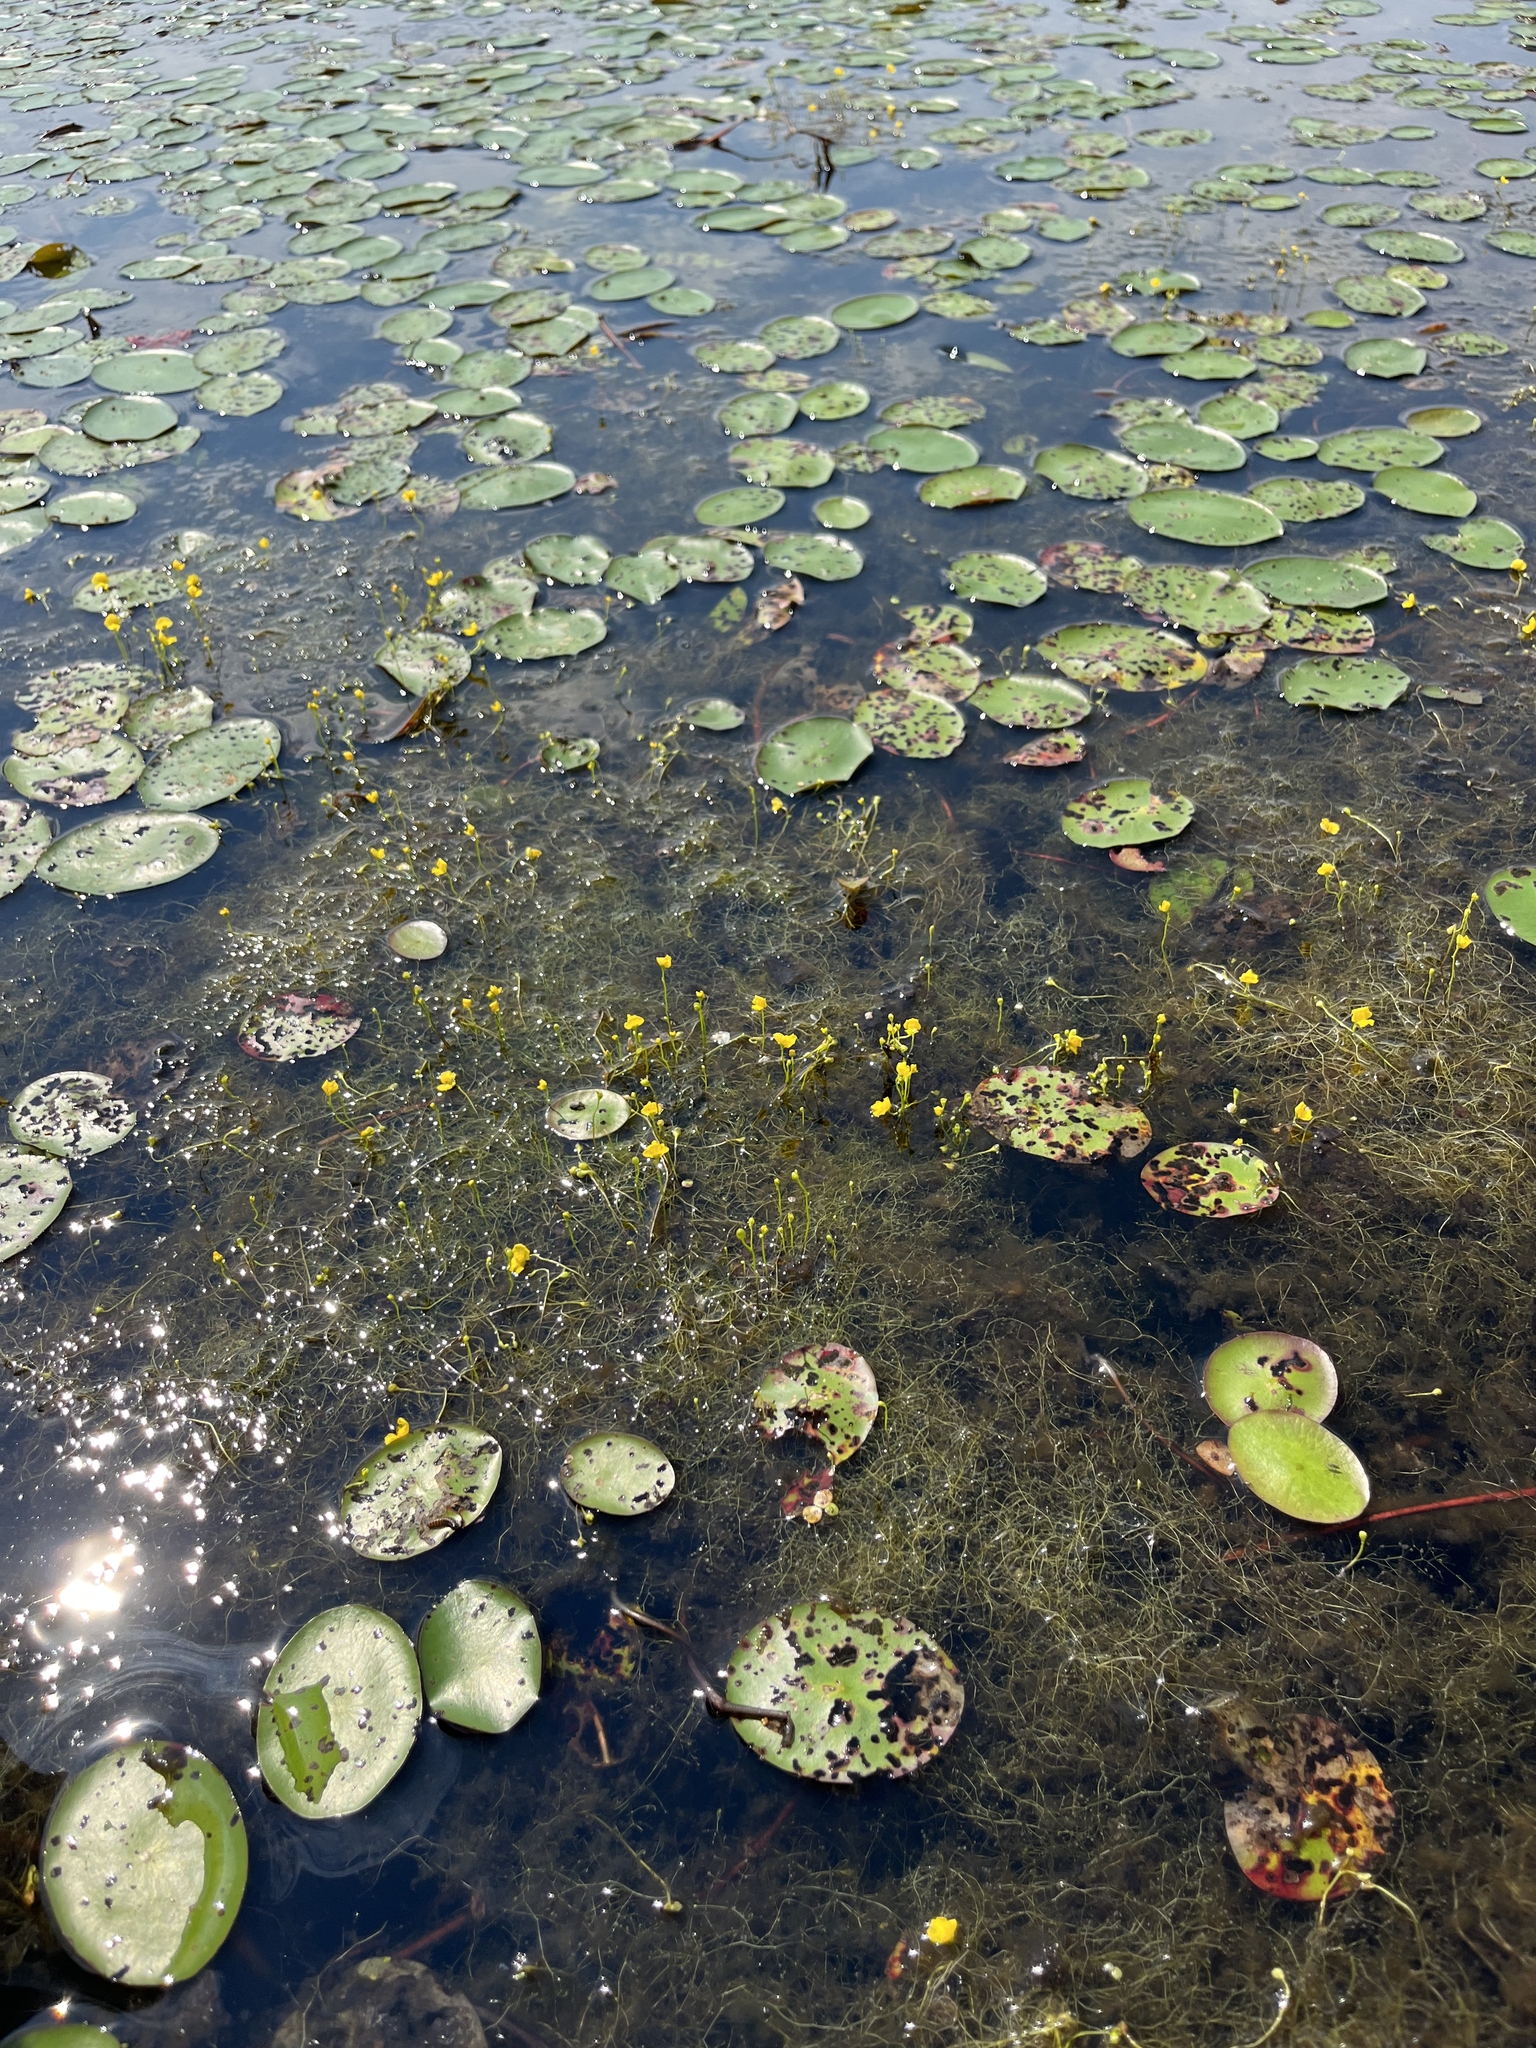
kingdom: Plantae
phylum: Tracheophyta
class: Magnoliopsida
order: Lamiales
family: Lentibulariaceae
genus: Utricularia
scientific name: Utricularia gibba
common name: Humped bladderwort
